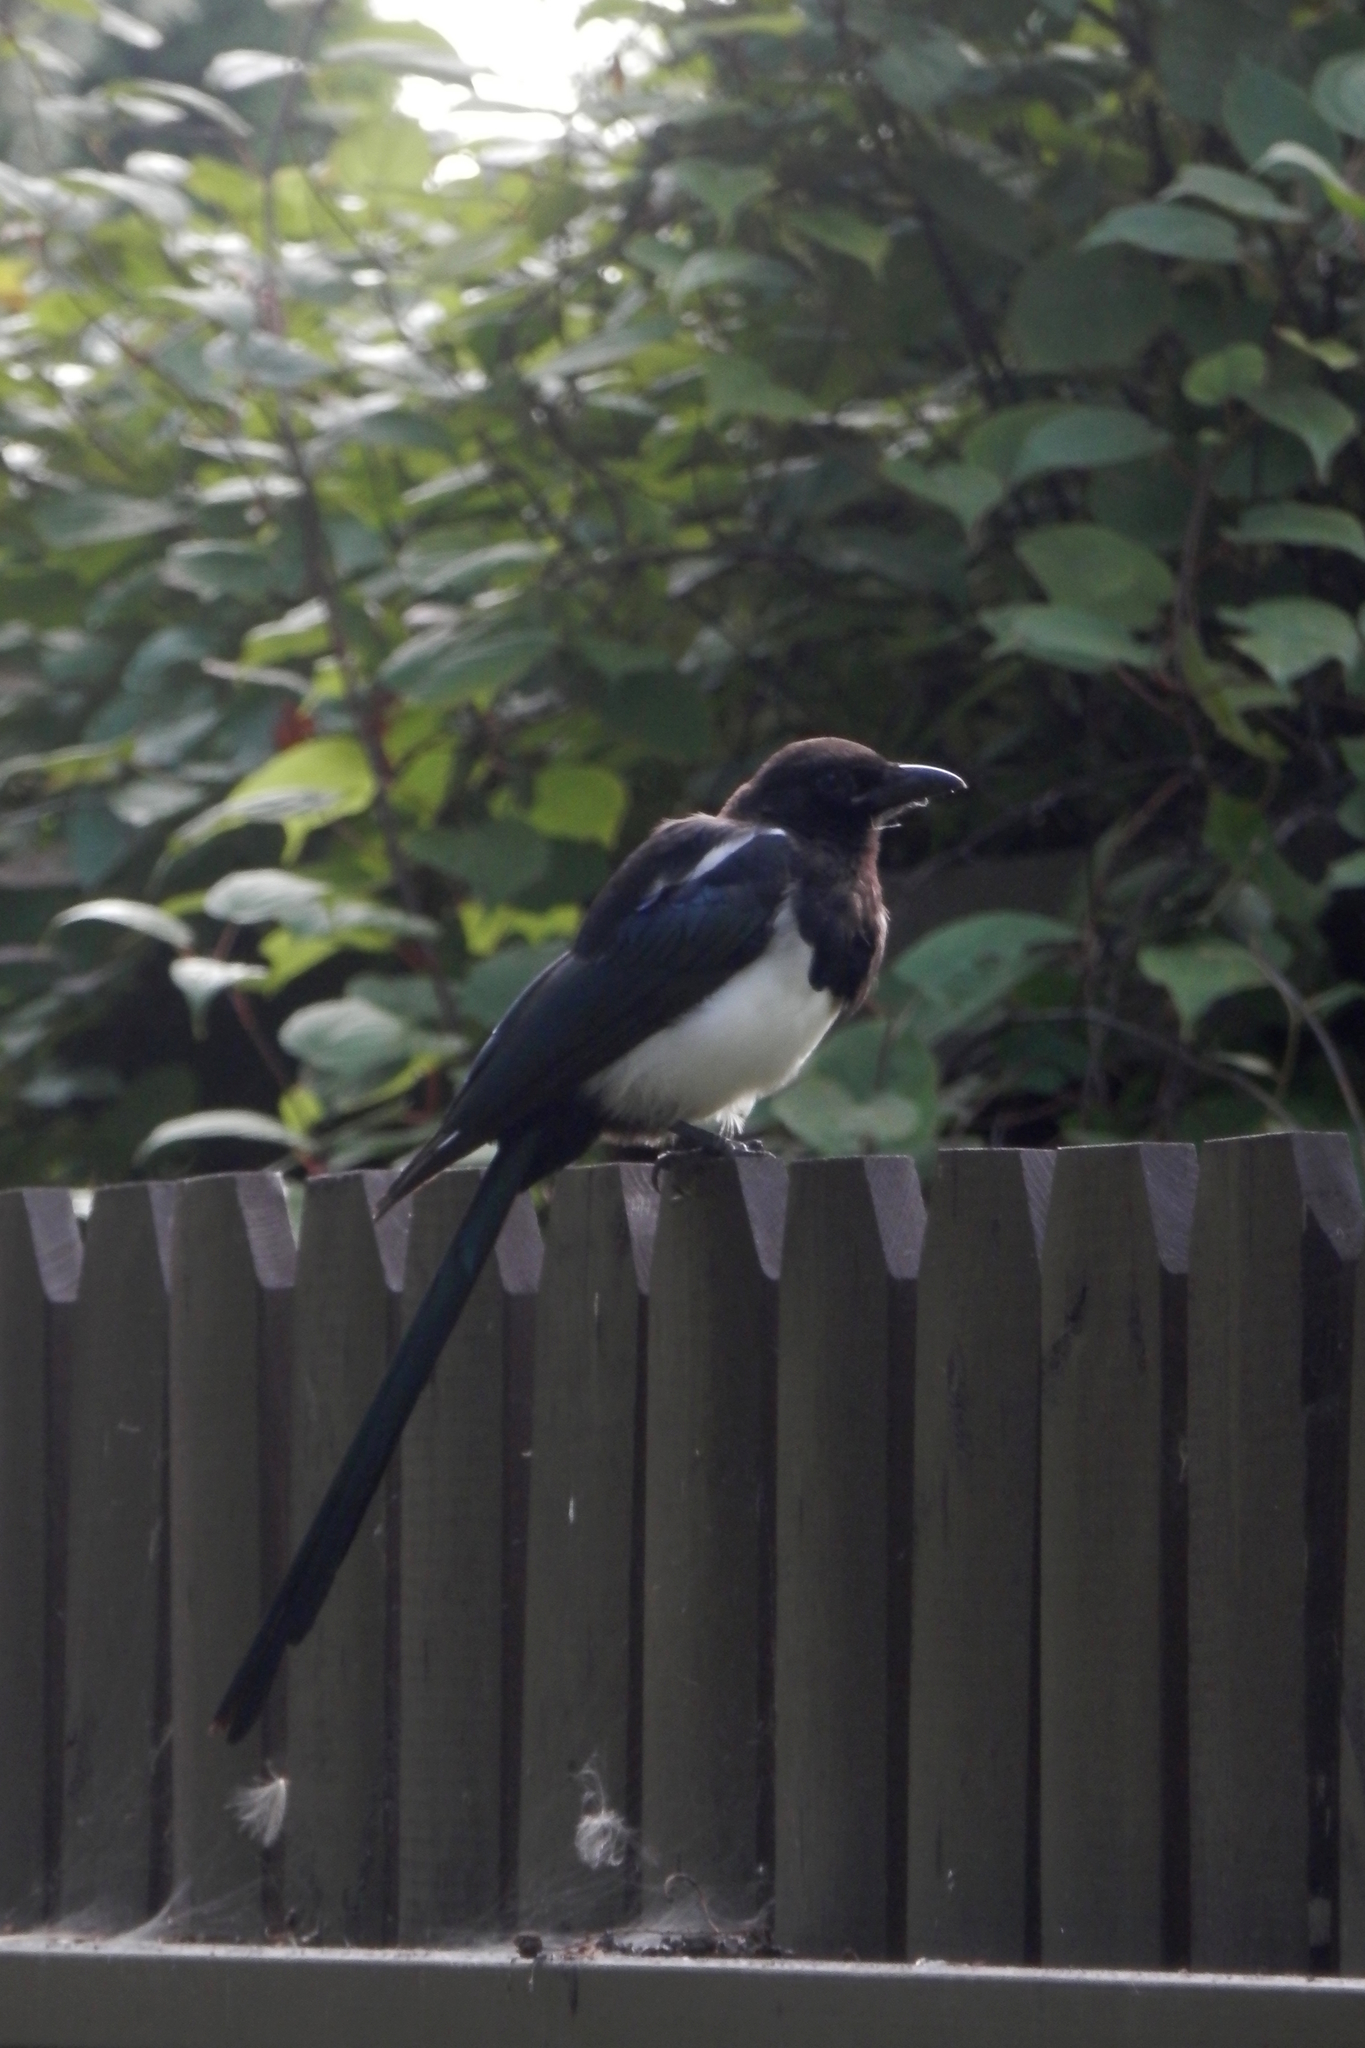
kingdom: Animalia
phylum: Chordata
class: Aves
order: Passeriformes
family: Corvidae
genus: Pica
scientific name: Pica hudsonia
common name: Black-billed magpie
